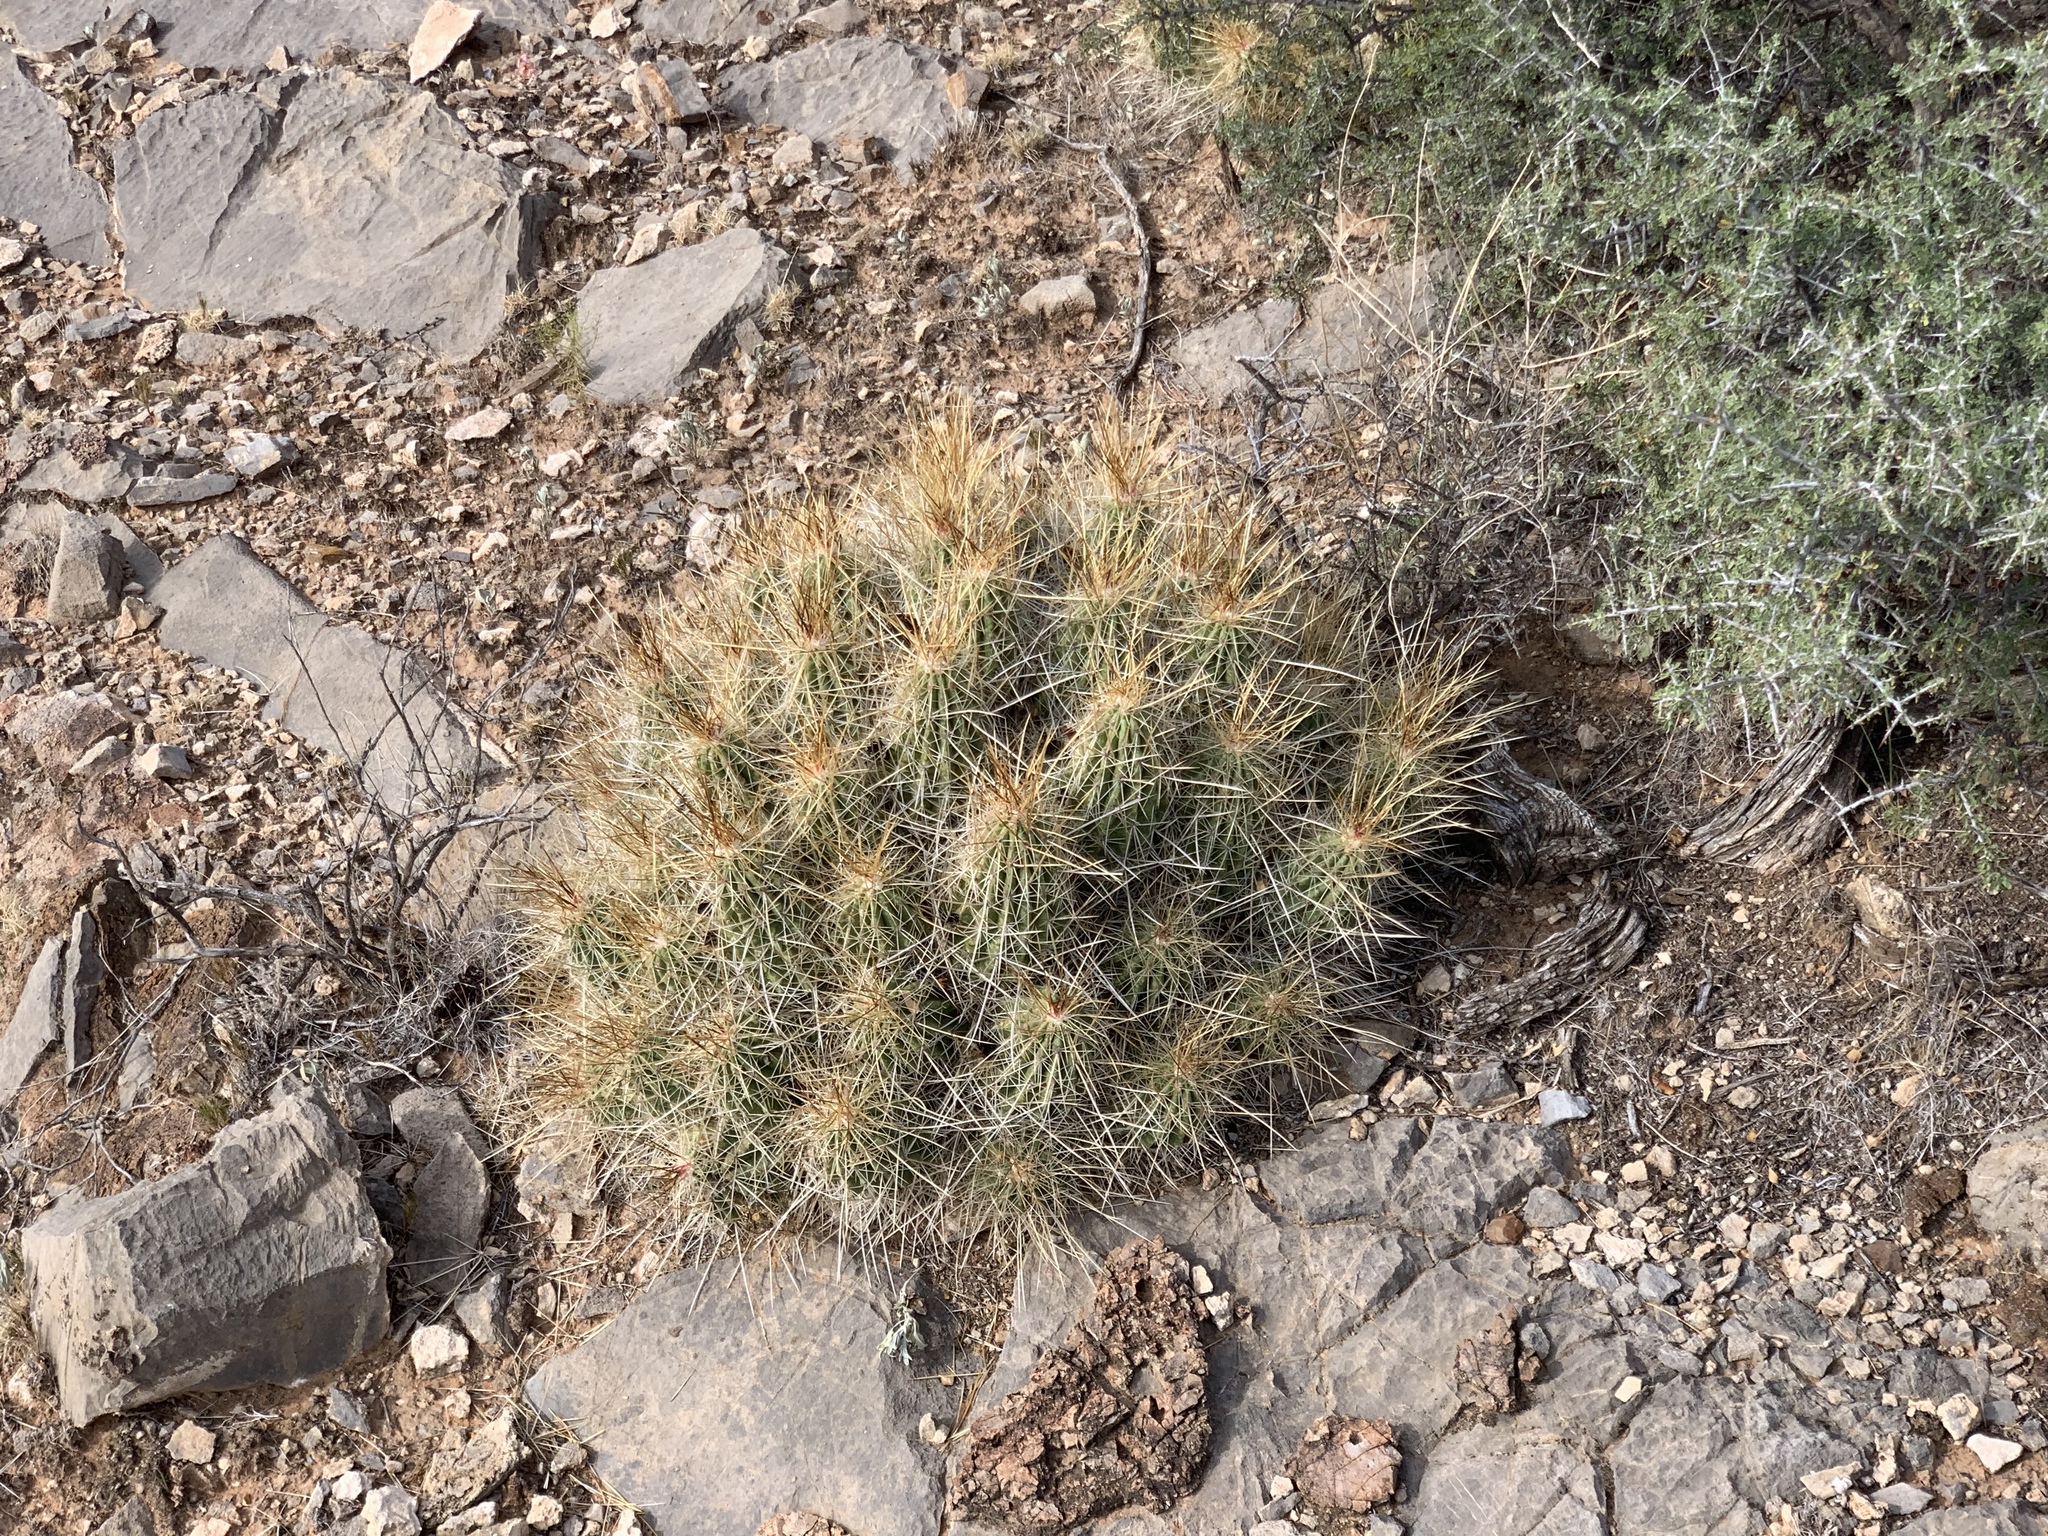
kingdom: Plantae
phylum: Tracheophyta
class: Magnoliopsida
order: Caryophyllales
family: Cactaceae
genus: Echinocereus
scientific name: Echinocereus stramineus
